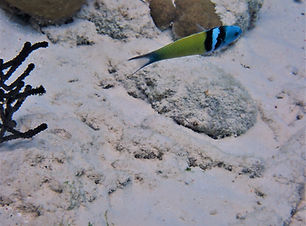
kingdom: Animalia
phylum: Chordata
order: Perciformes
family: Labridae
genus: Thalassoma
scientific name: Thalassoma bifasciatum
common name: Bluehead wrasse
